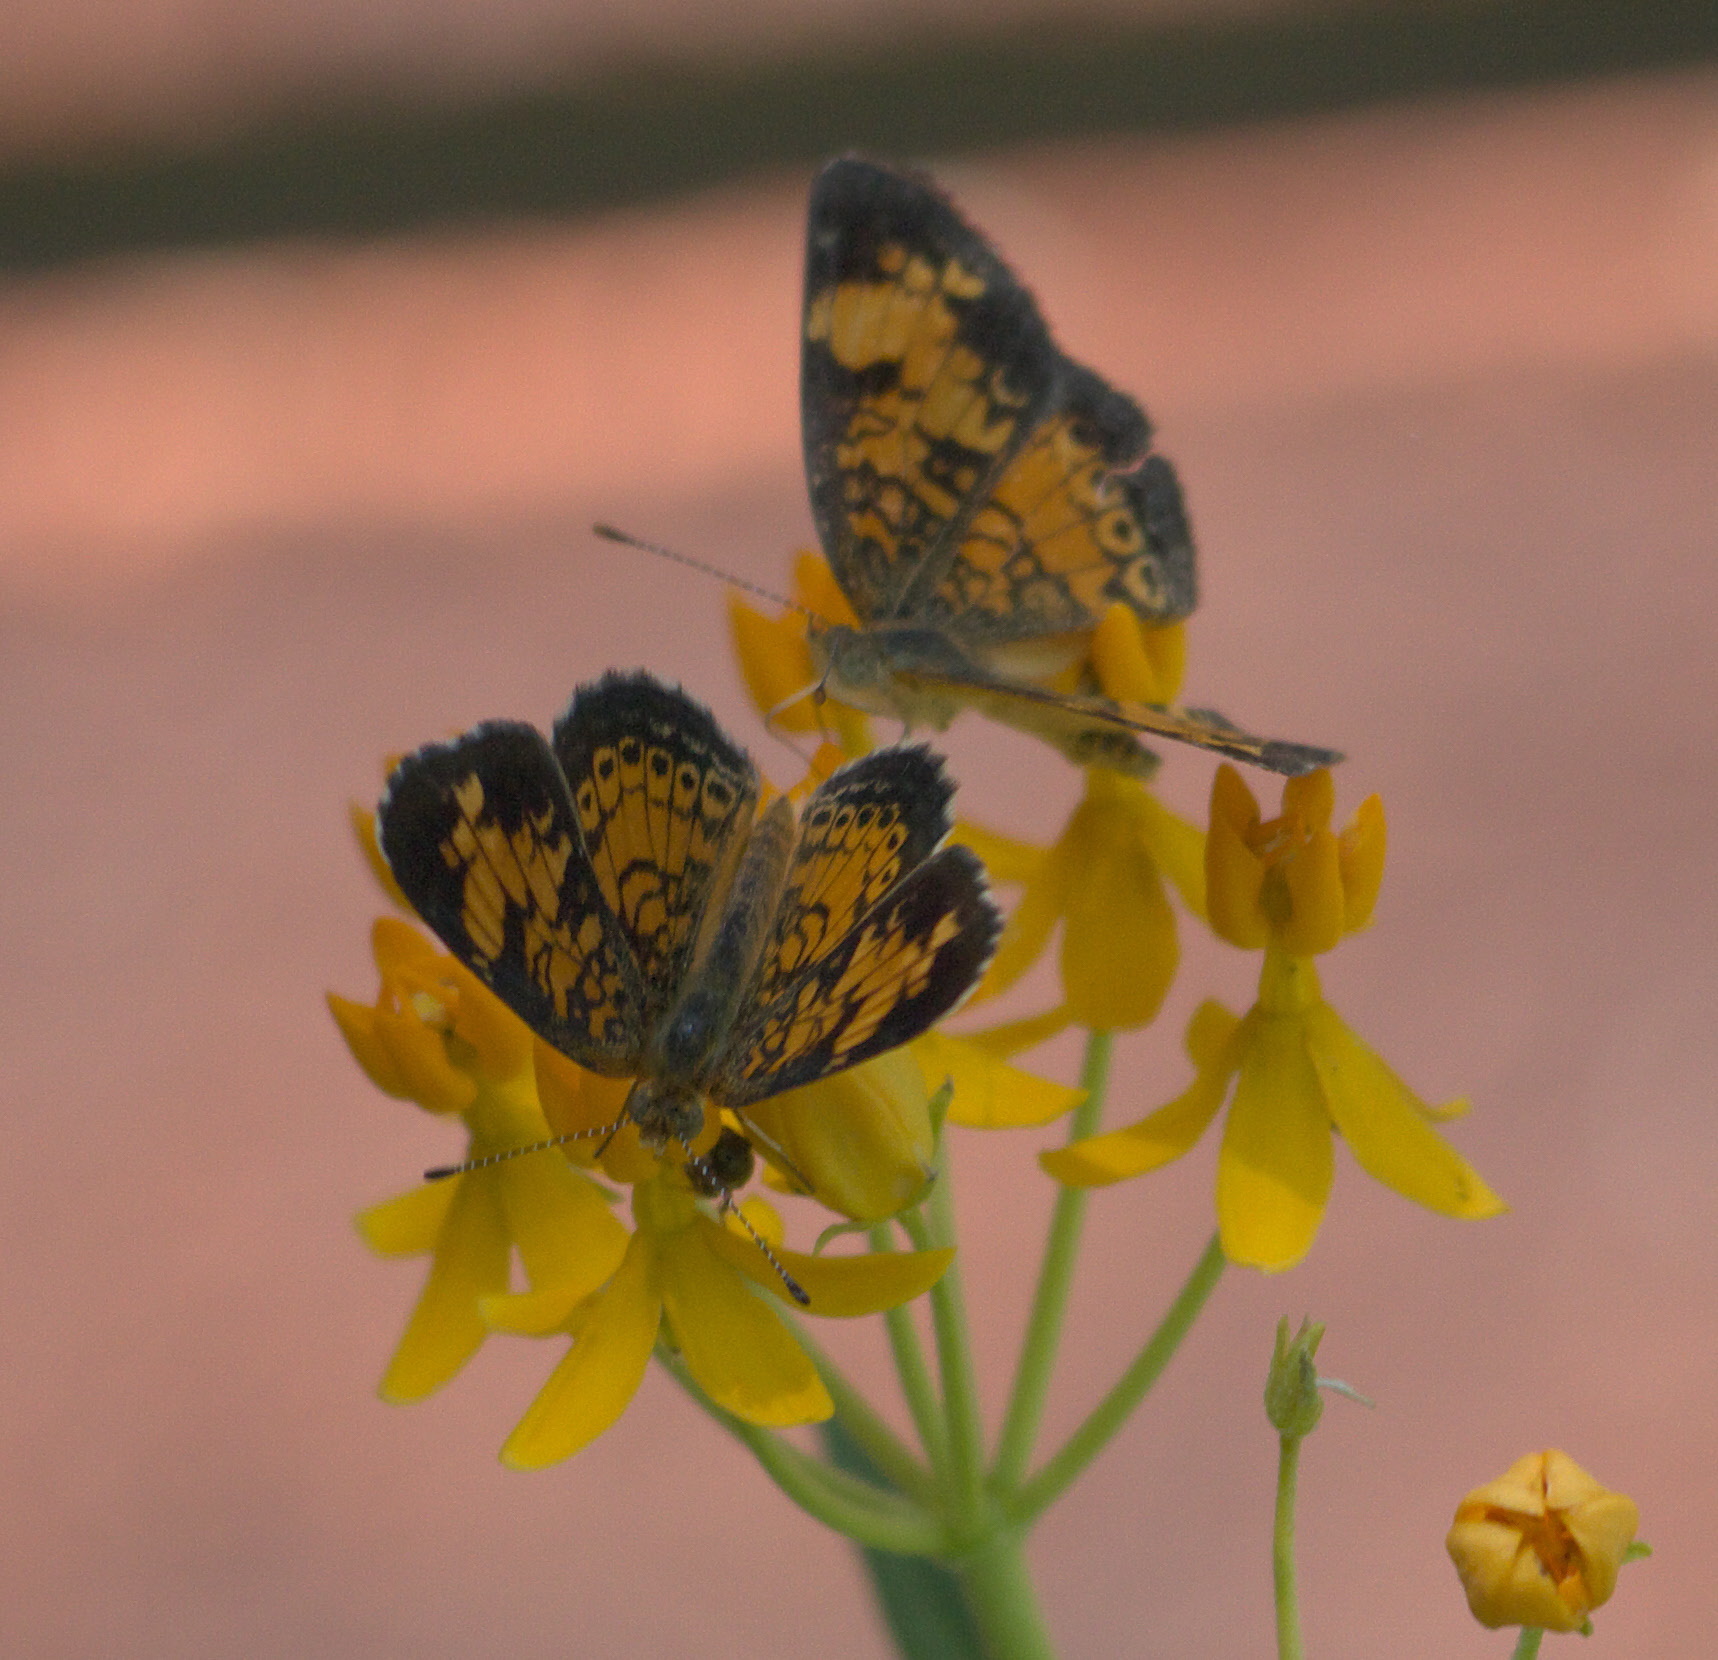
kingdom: Animalia
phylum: Arthropoda
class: Insecta
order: Lepidoptera
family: Nymphalidae
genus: Phyciodes
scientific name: Phyciodes tharos
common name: Pearl crescent
